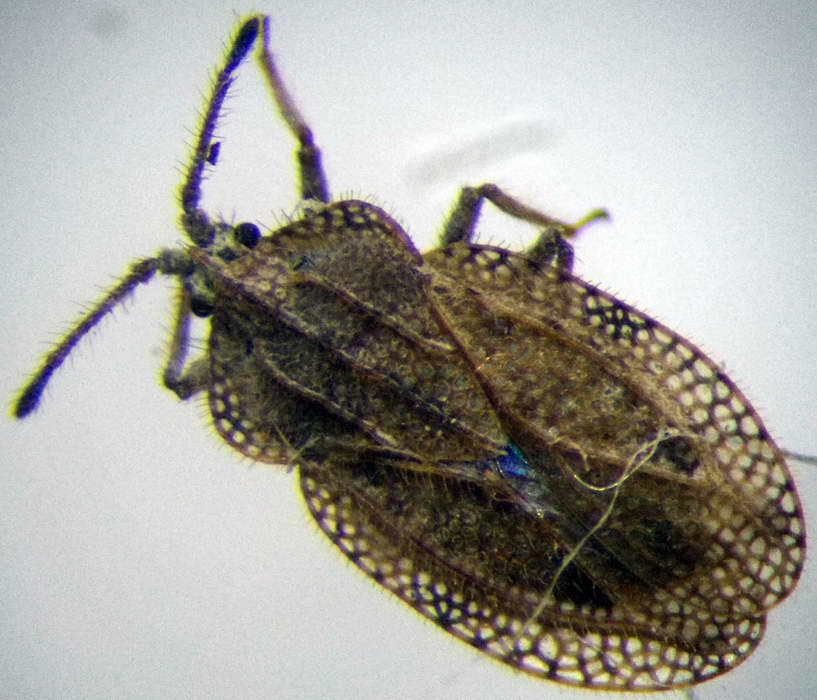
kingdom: Animalia
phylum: Arthropoda
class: Insecta
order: Hemiptera
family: Tingidae
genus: Tingis
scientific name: Tingis reticulata
